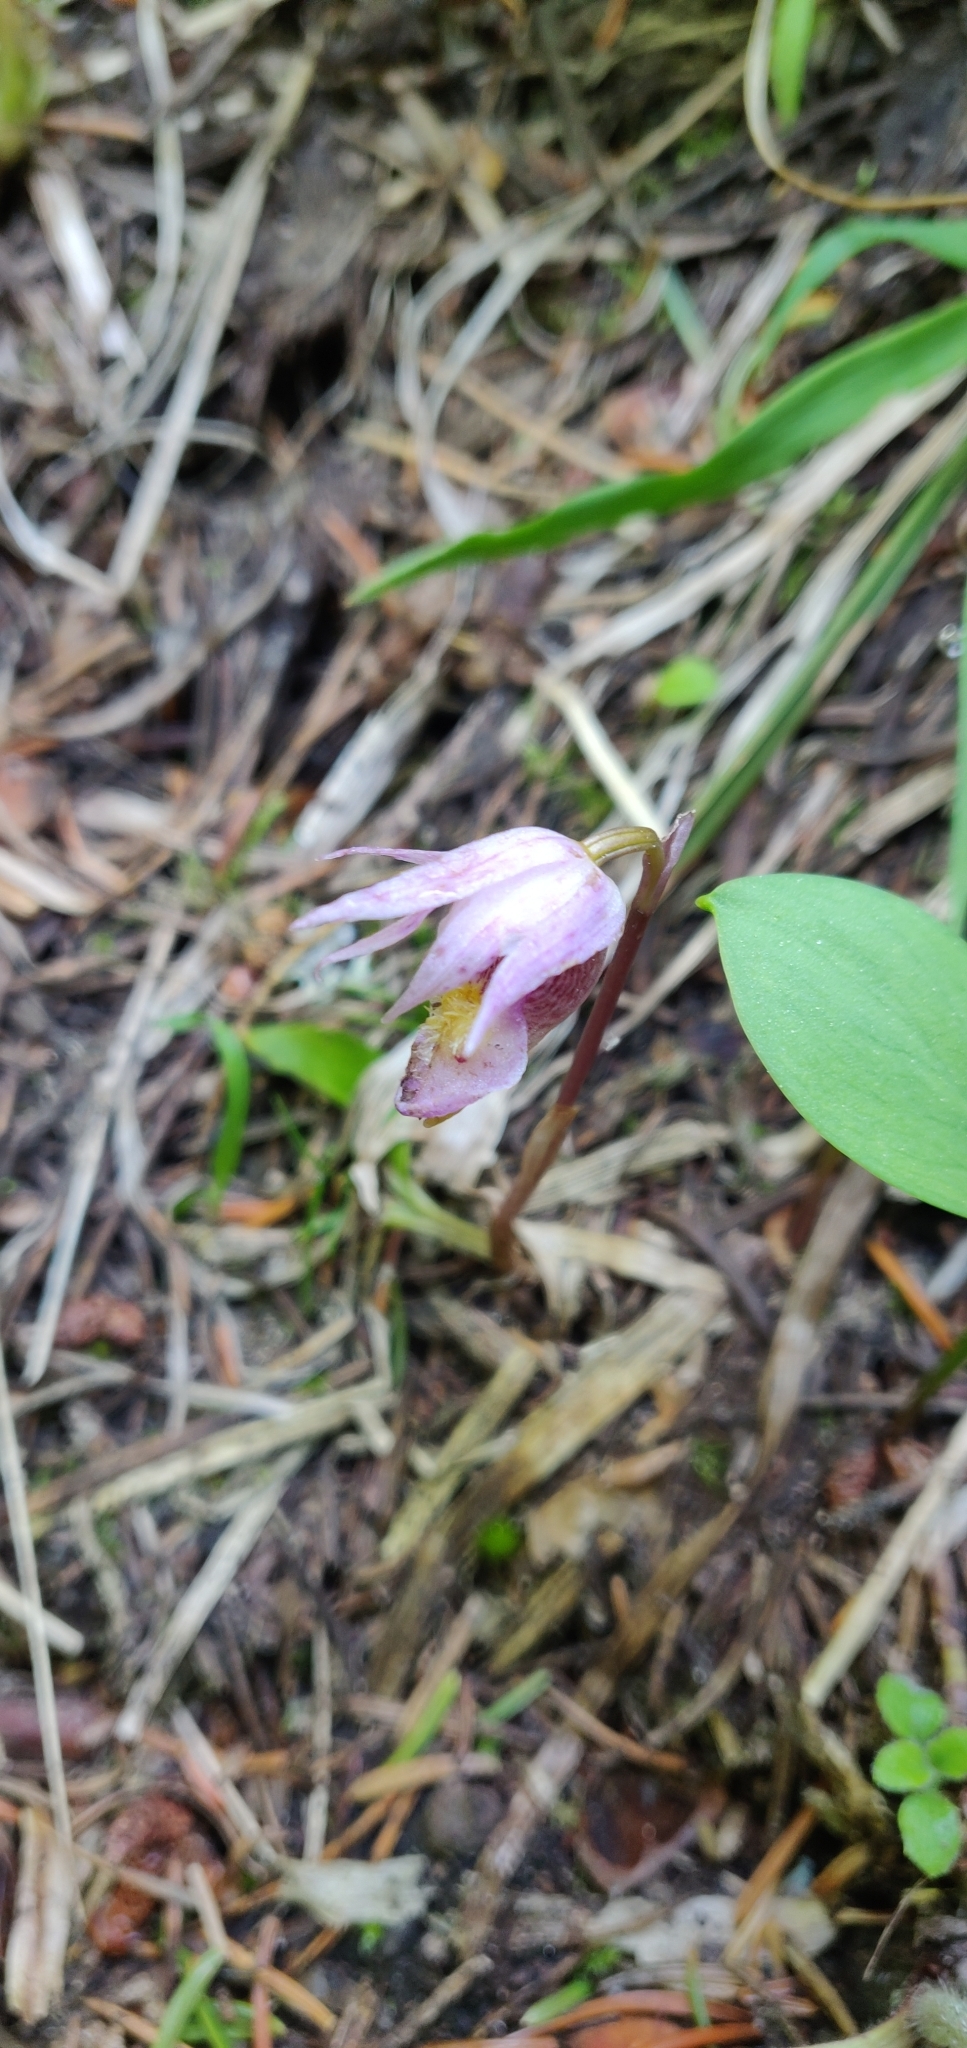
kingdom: Plantae
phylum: Tracheophyta
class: Liliopsida
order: Asparagales
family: Orchidaceae
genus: Calypso
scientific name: Calypso bulbosa
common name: Calypso
